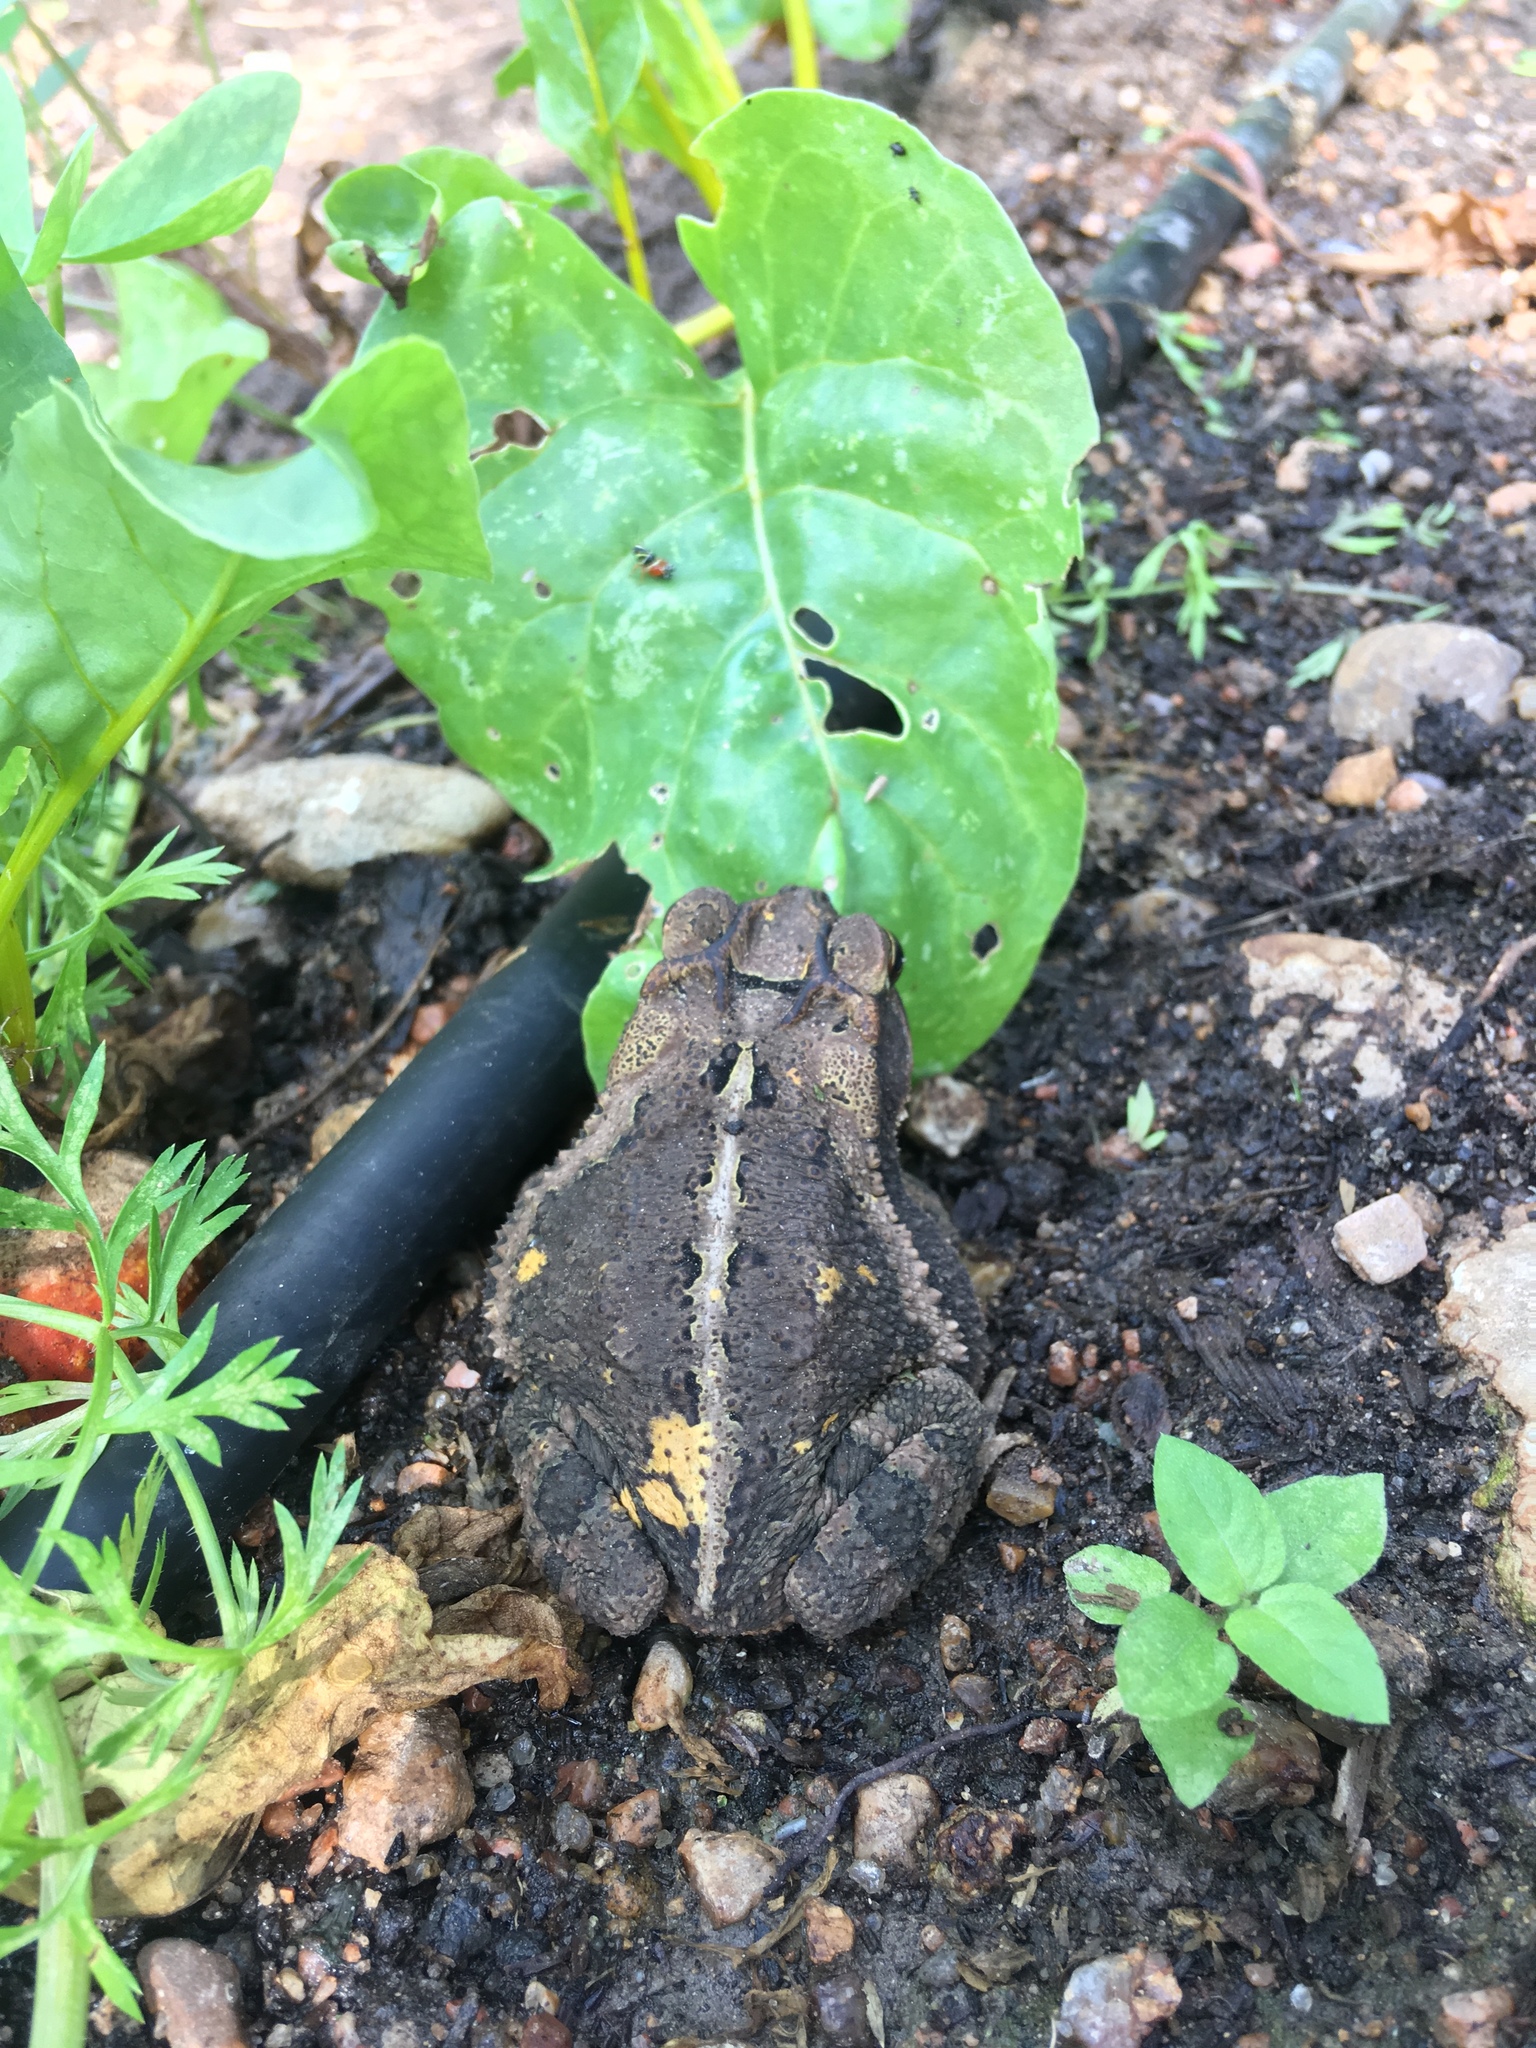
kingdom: Animalia
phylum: Chordata
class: Amphibia
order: Anura
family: Bufonidae
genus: Incilius
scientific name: Incilius nebulifer
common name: Gulf coast toad
